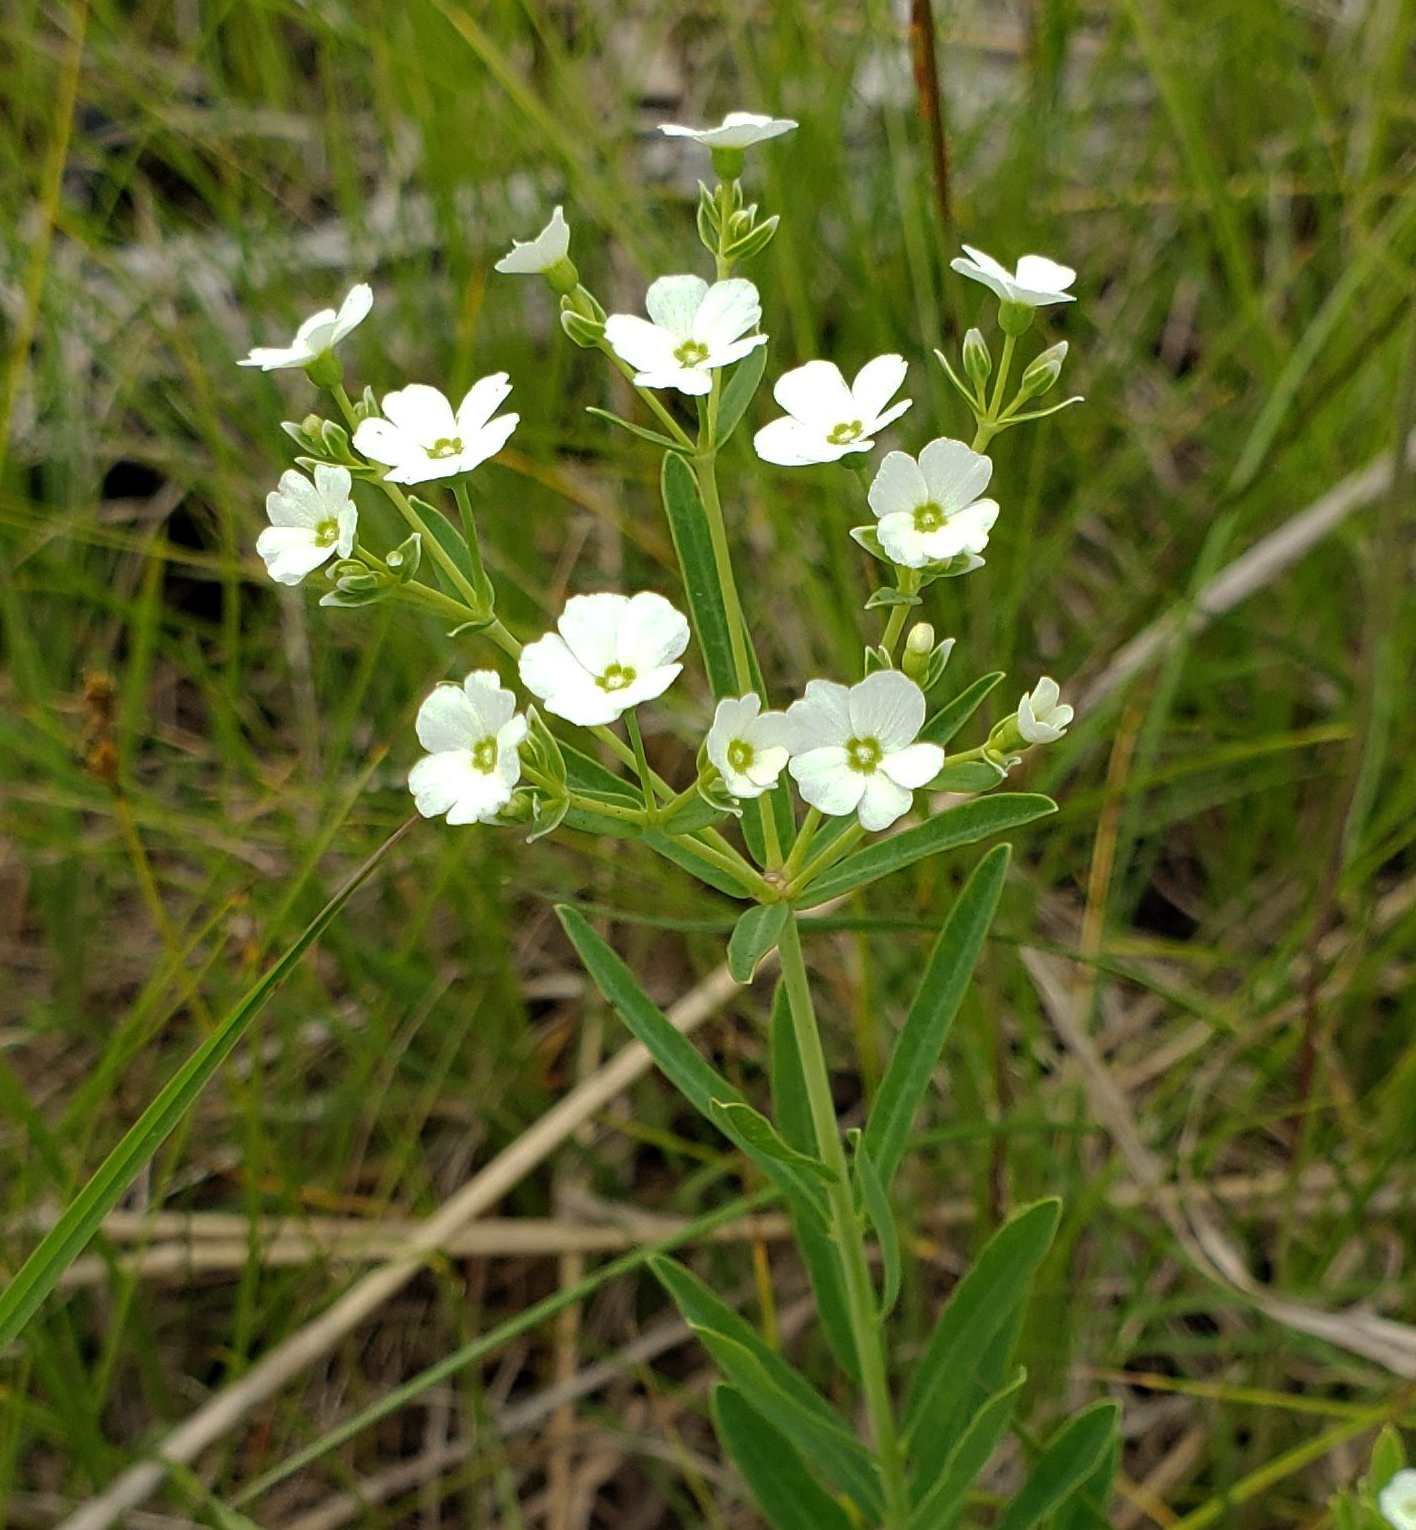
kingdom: Plantae
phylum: Tracheophyta
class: Magnoliopsida
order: Malpighiales
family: Euphorbiaceae
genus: Euphorbia
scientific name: Euphorbia corollata
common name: Flowering spurge
